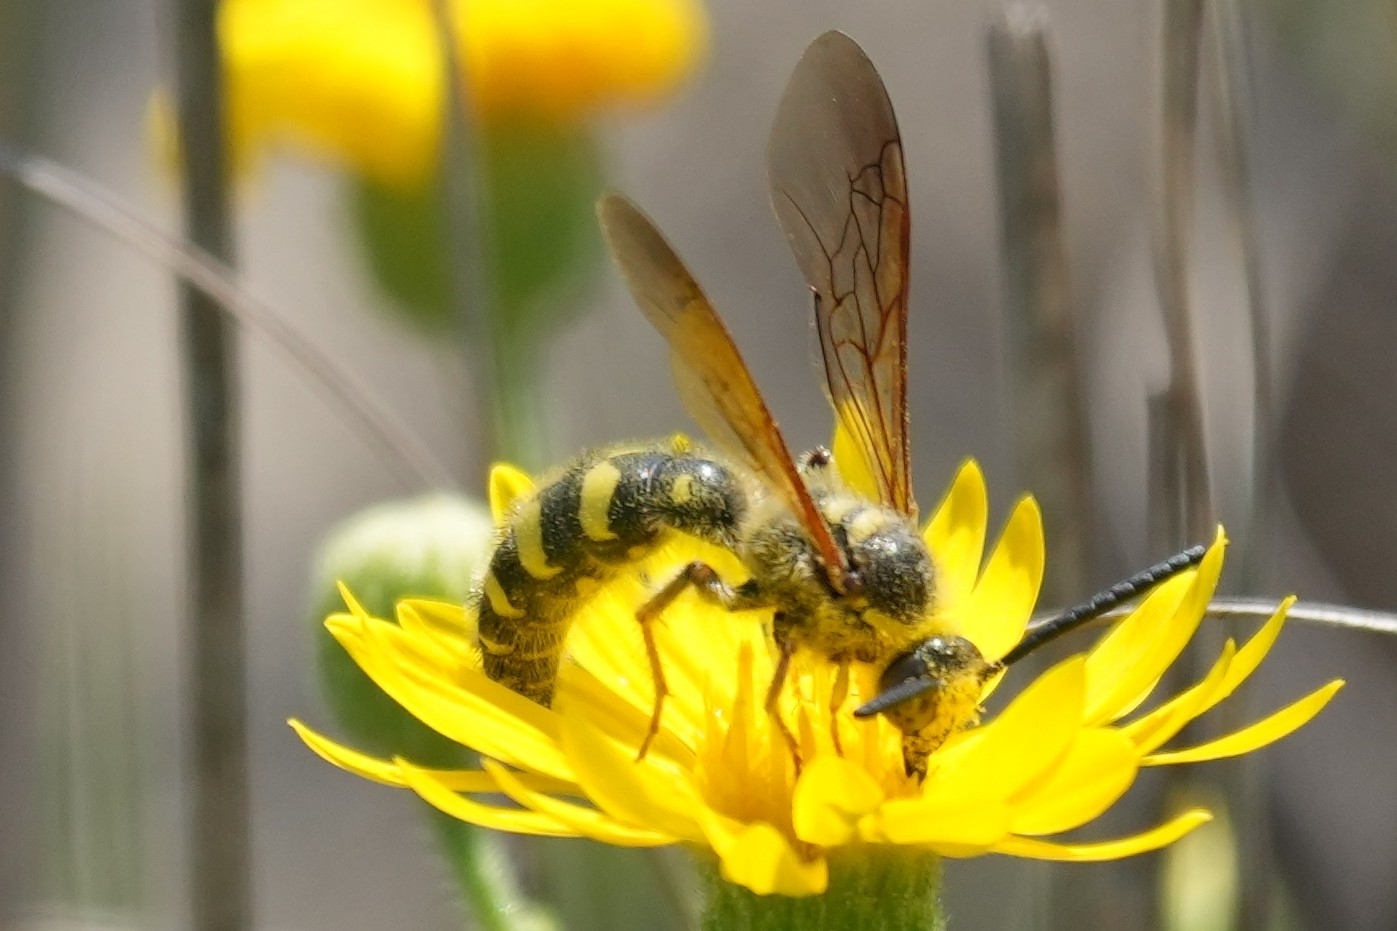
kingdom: Animalia
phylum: Arthropoda
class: Insecta
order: Hymenoptera
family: Scoliidae
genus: Colpa
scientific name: Colpa octomaculata
